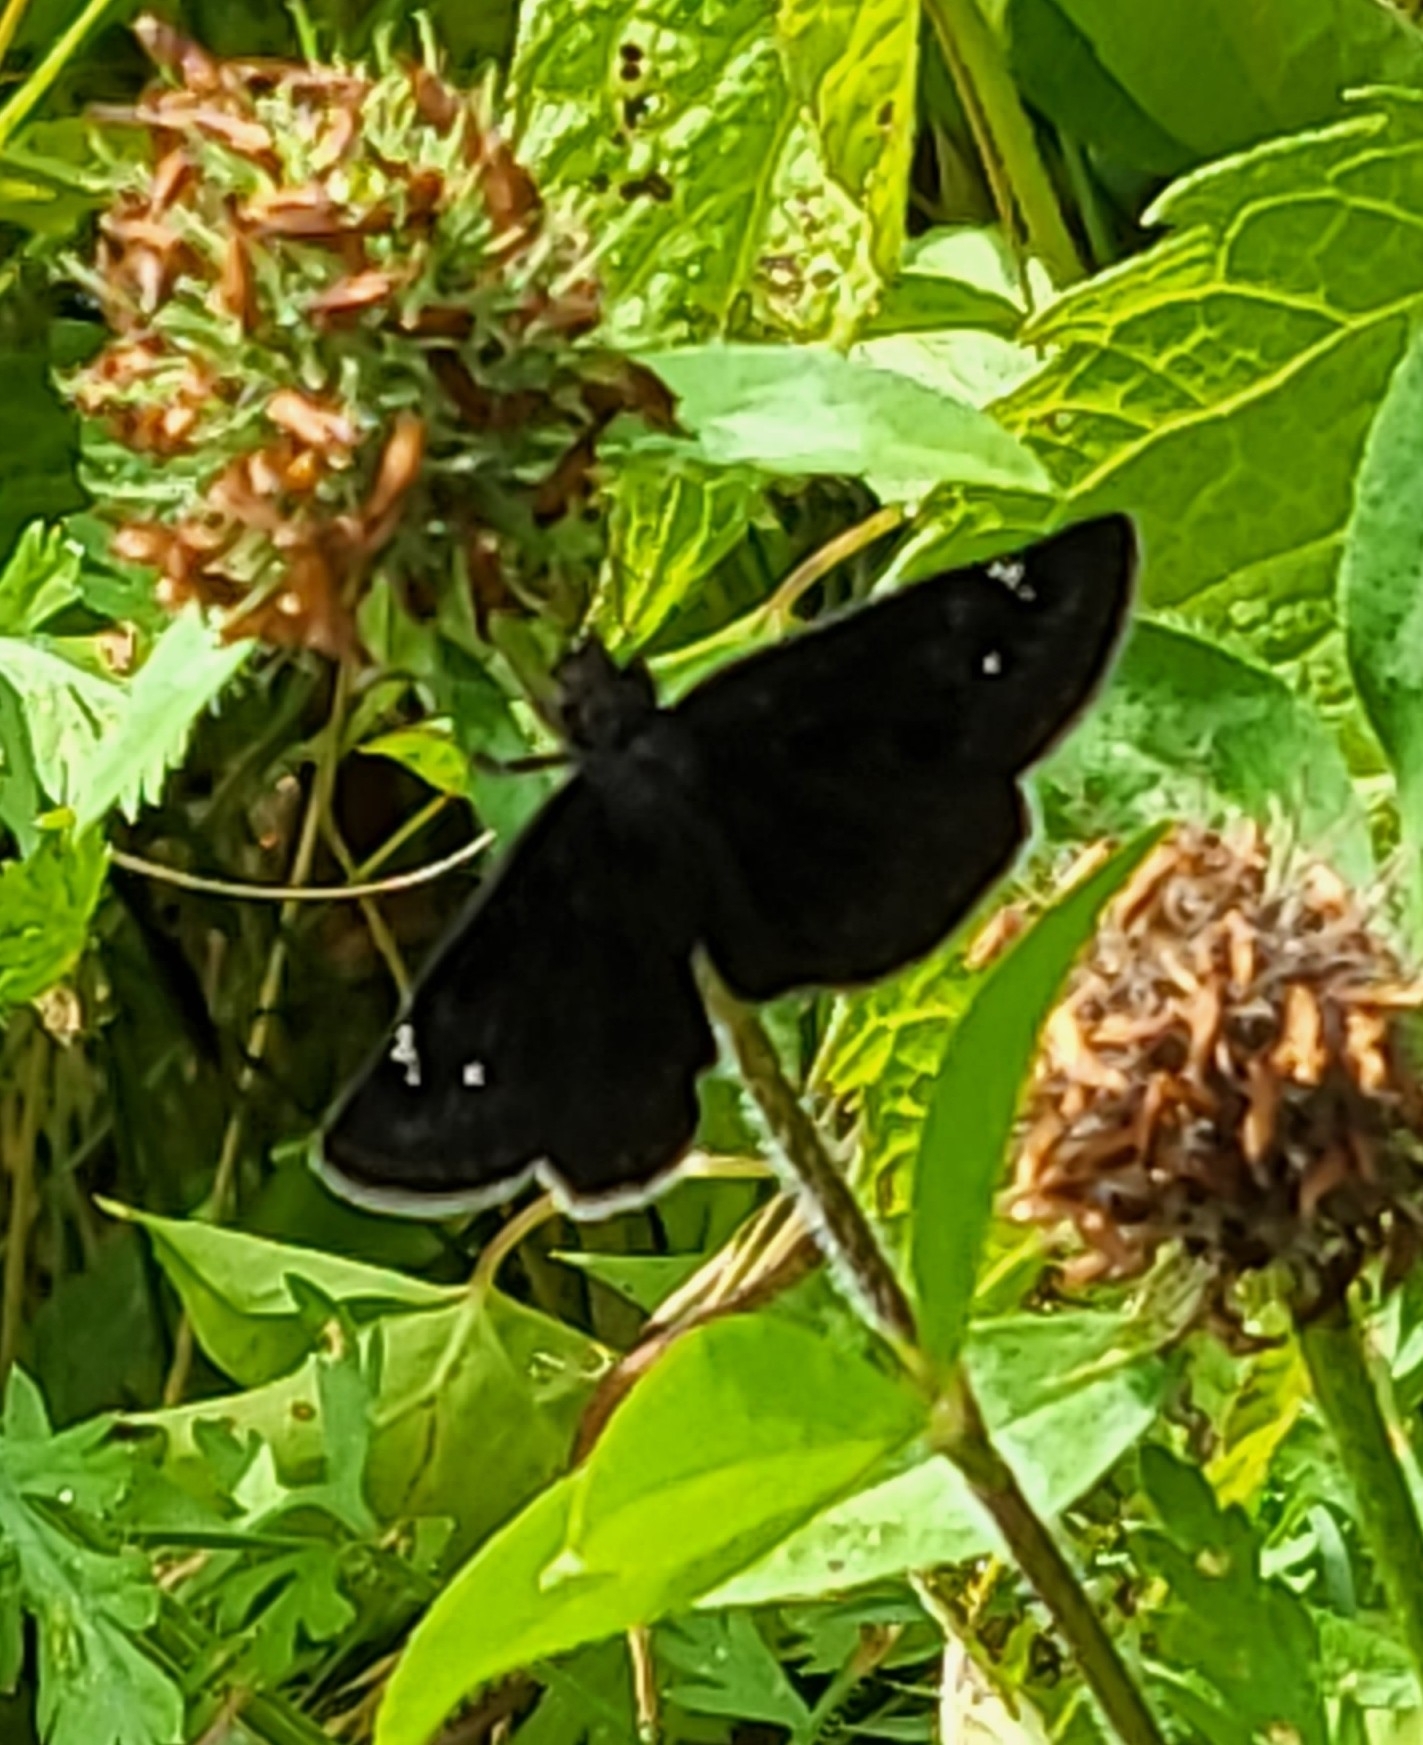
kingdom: Animalia
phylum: Arthropoda
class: Insecta
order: Lepidoptera
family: Hesperiidae
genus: Erynnis
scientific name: Erynnis baptisiae
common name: Wild indigo duskywing
